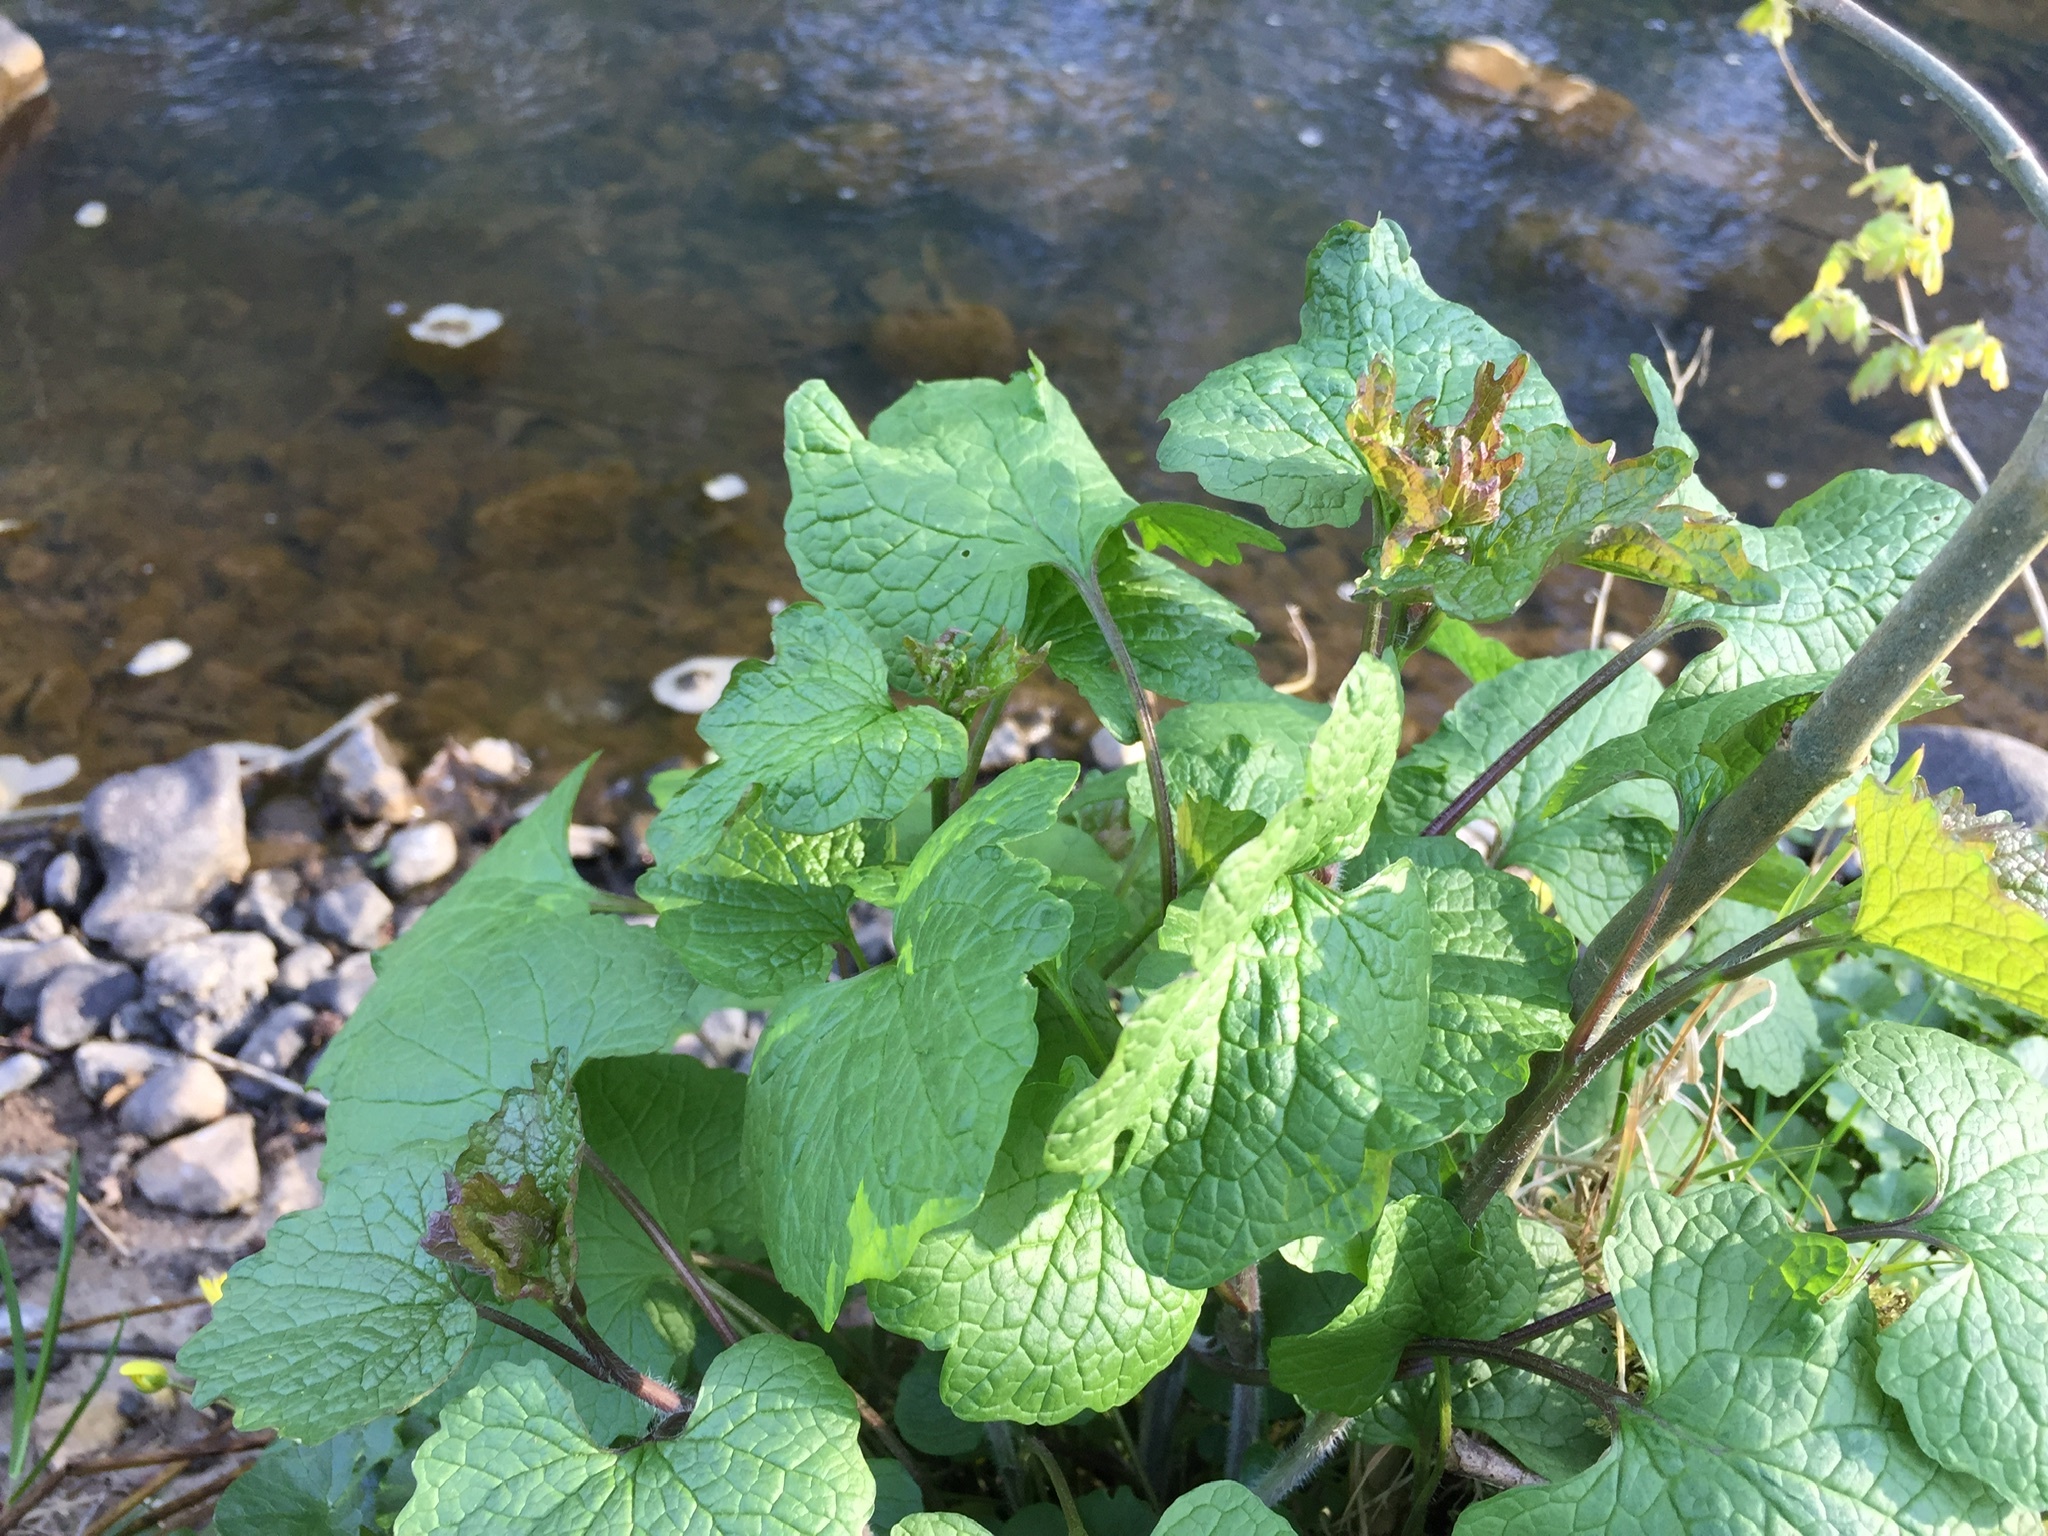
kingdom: Plantae
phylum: Tracheophyta
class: Magnoliopsida
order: Brassicales
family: Brassicaceae
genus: Alliaria
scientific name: Alliaria petiolata
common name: Garlic mustard
